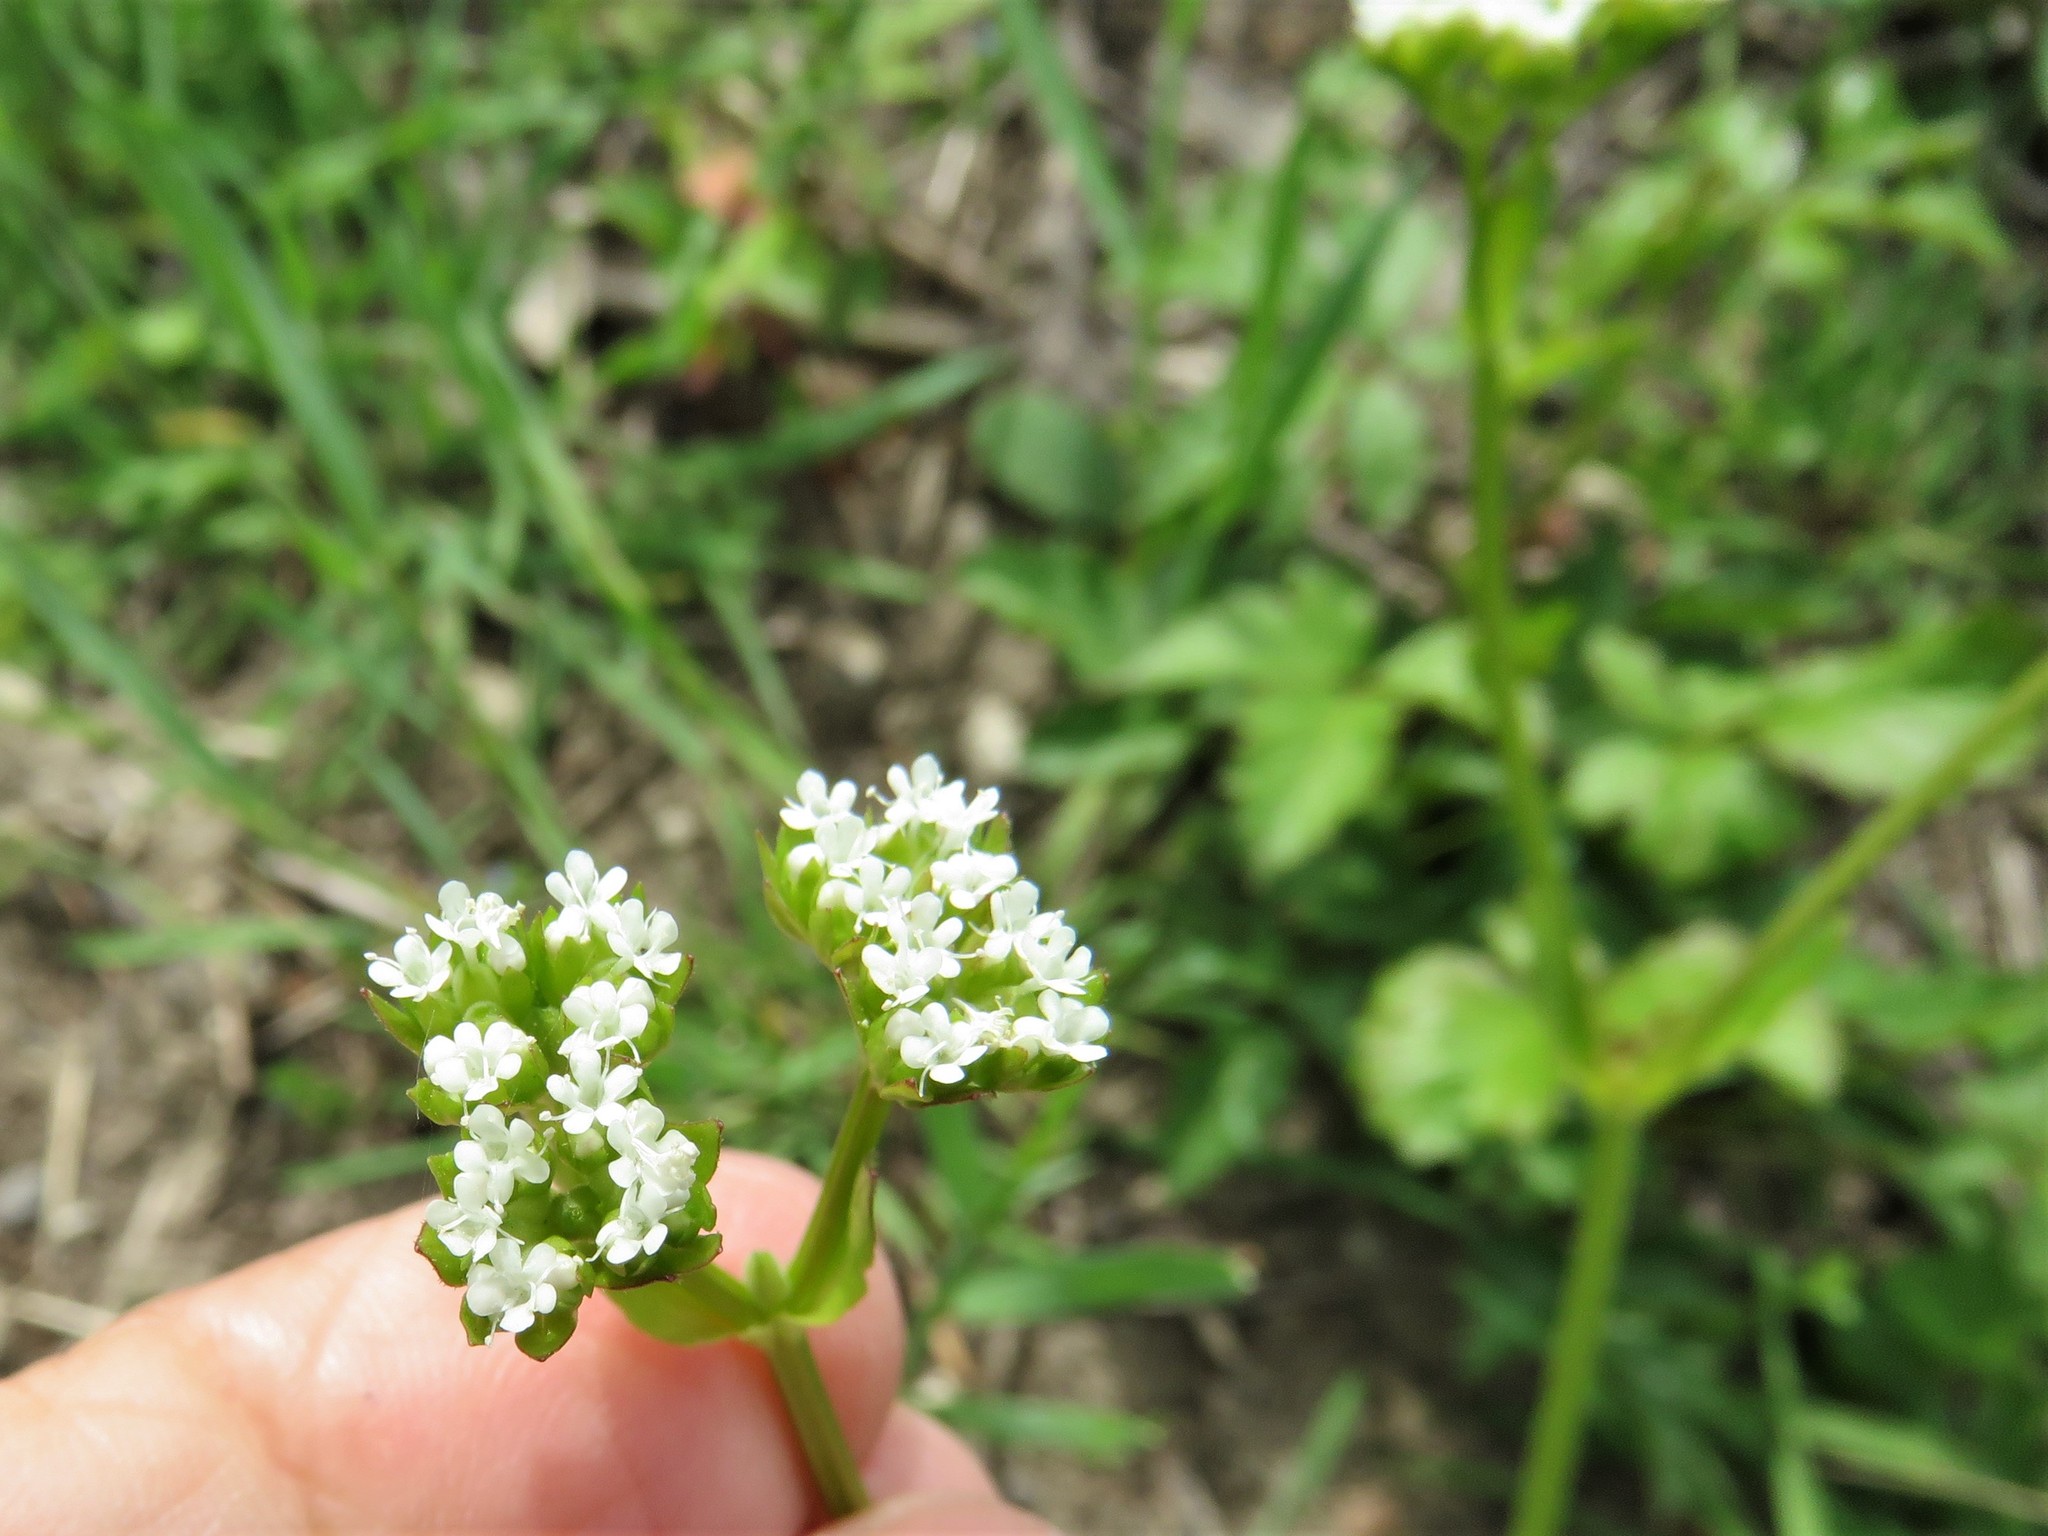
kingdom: Plantae
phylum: Tracheophyta
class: Magnoliopsida
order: Dipsacales
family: Caprifoliaceae
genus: Valerianella
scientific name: Valerianella radiata
